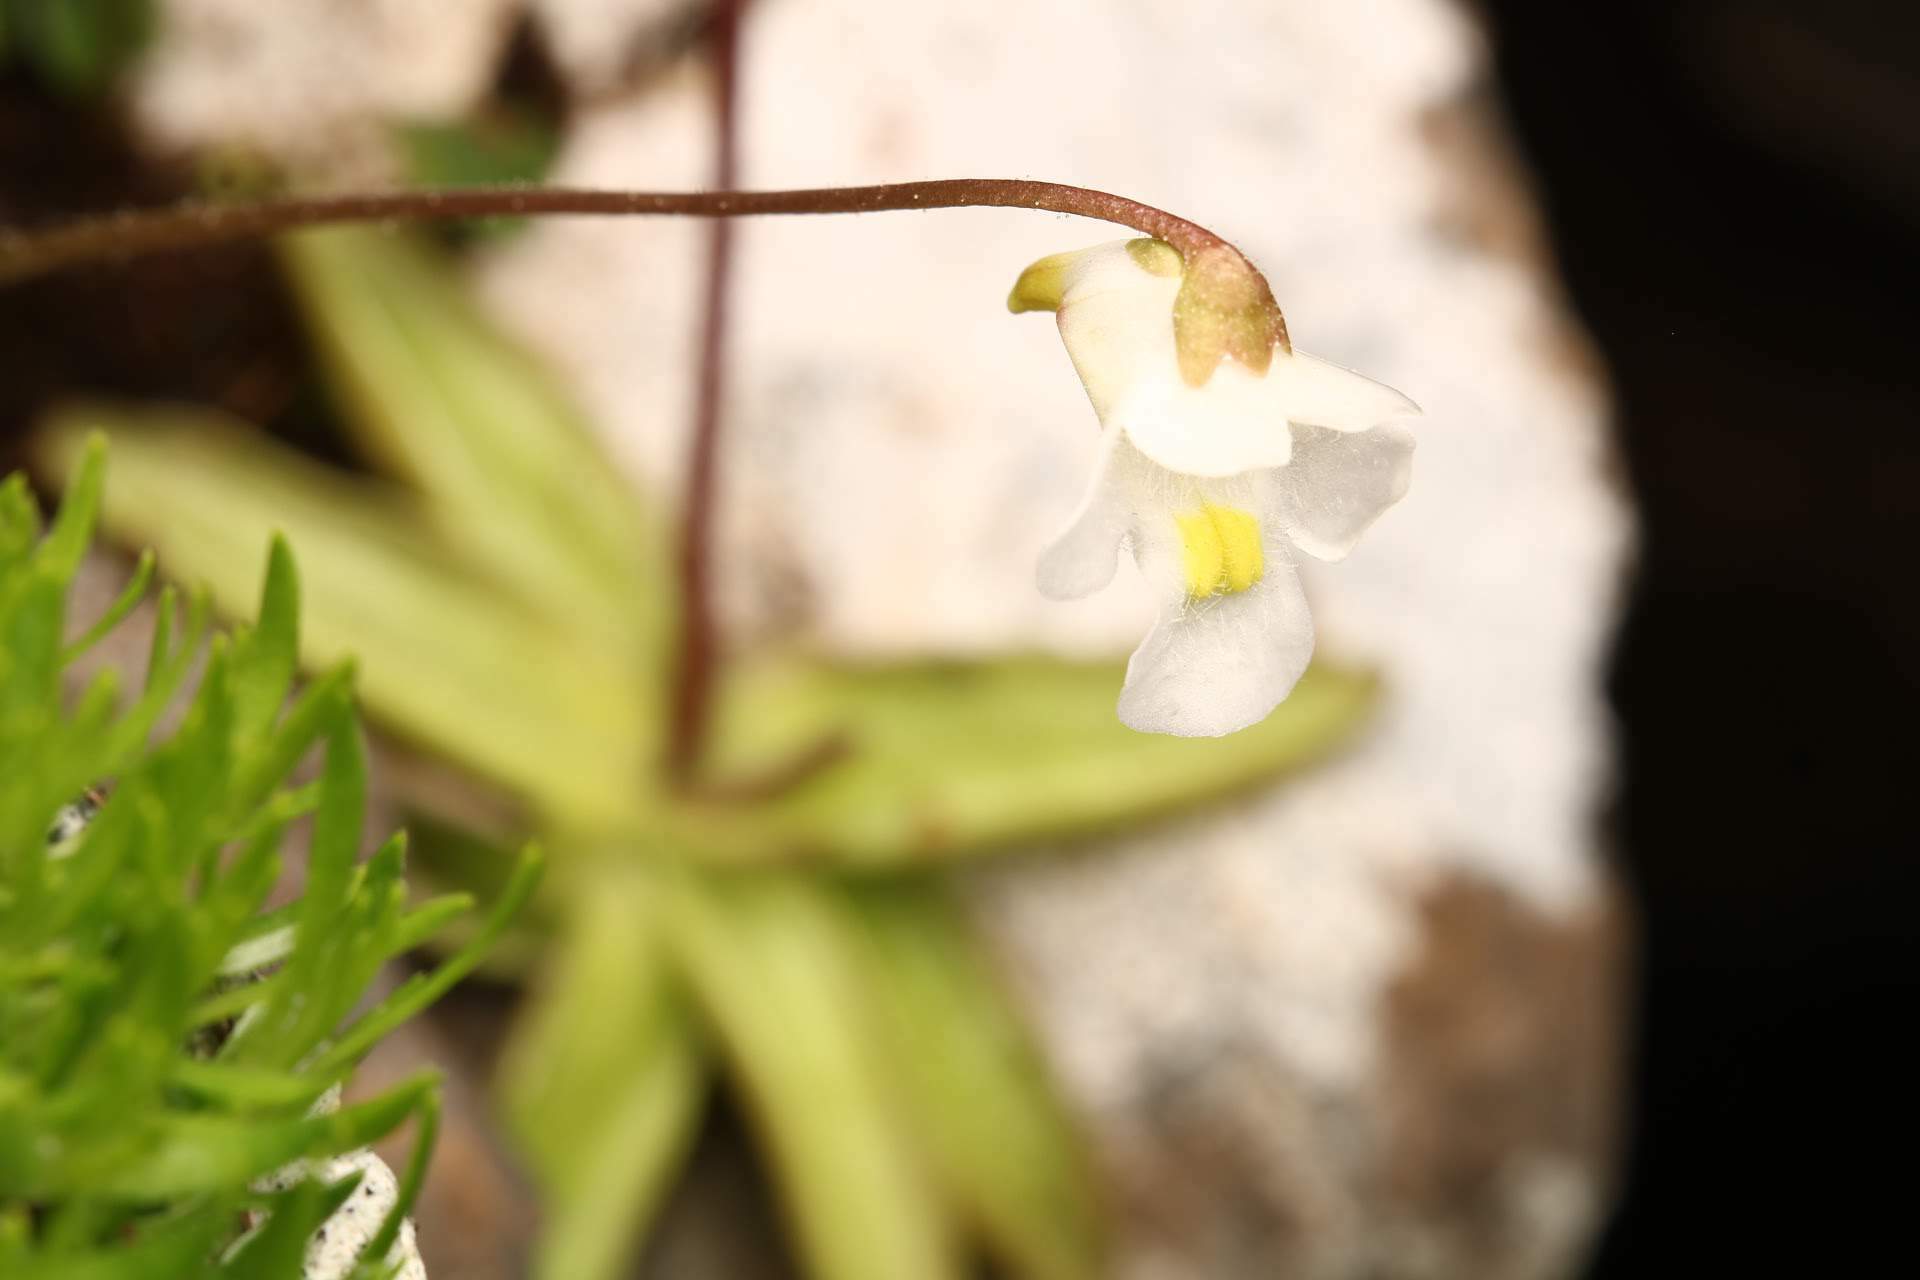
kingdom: Plantae
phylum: Tracheophyta
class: Magnoliopsida
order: Lamiales
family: Lentibulariaceae
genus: Pinguicula
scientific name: Pinguicula alpina
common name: Alpine butterwort
